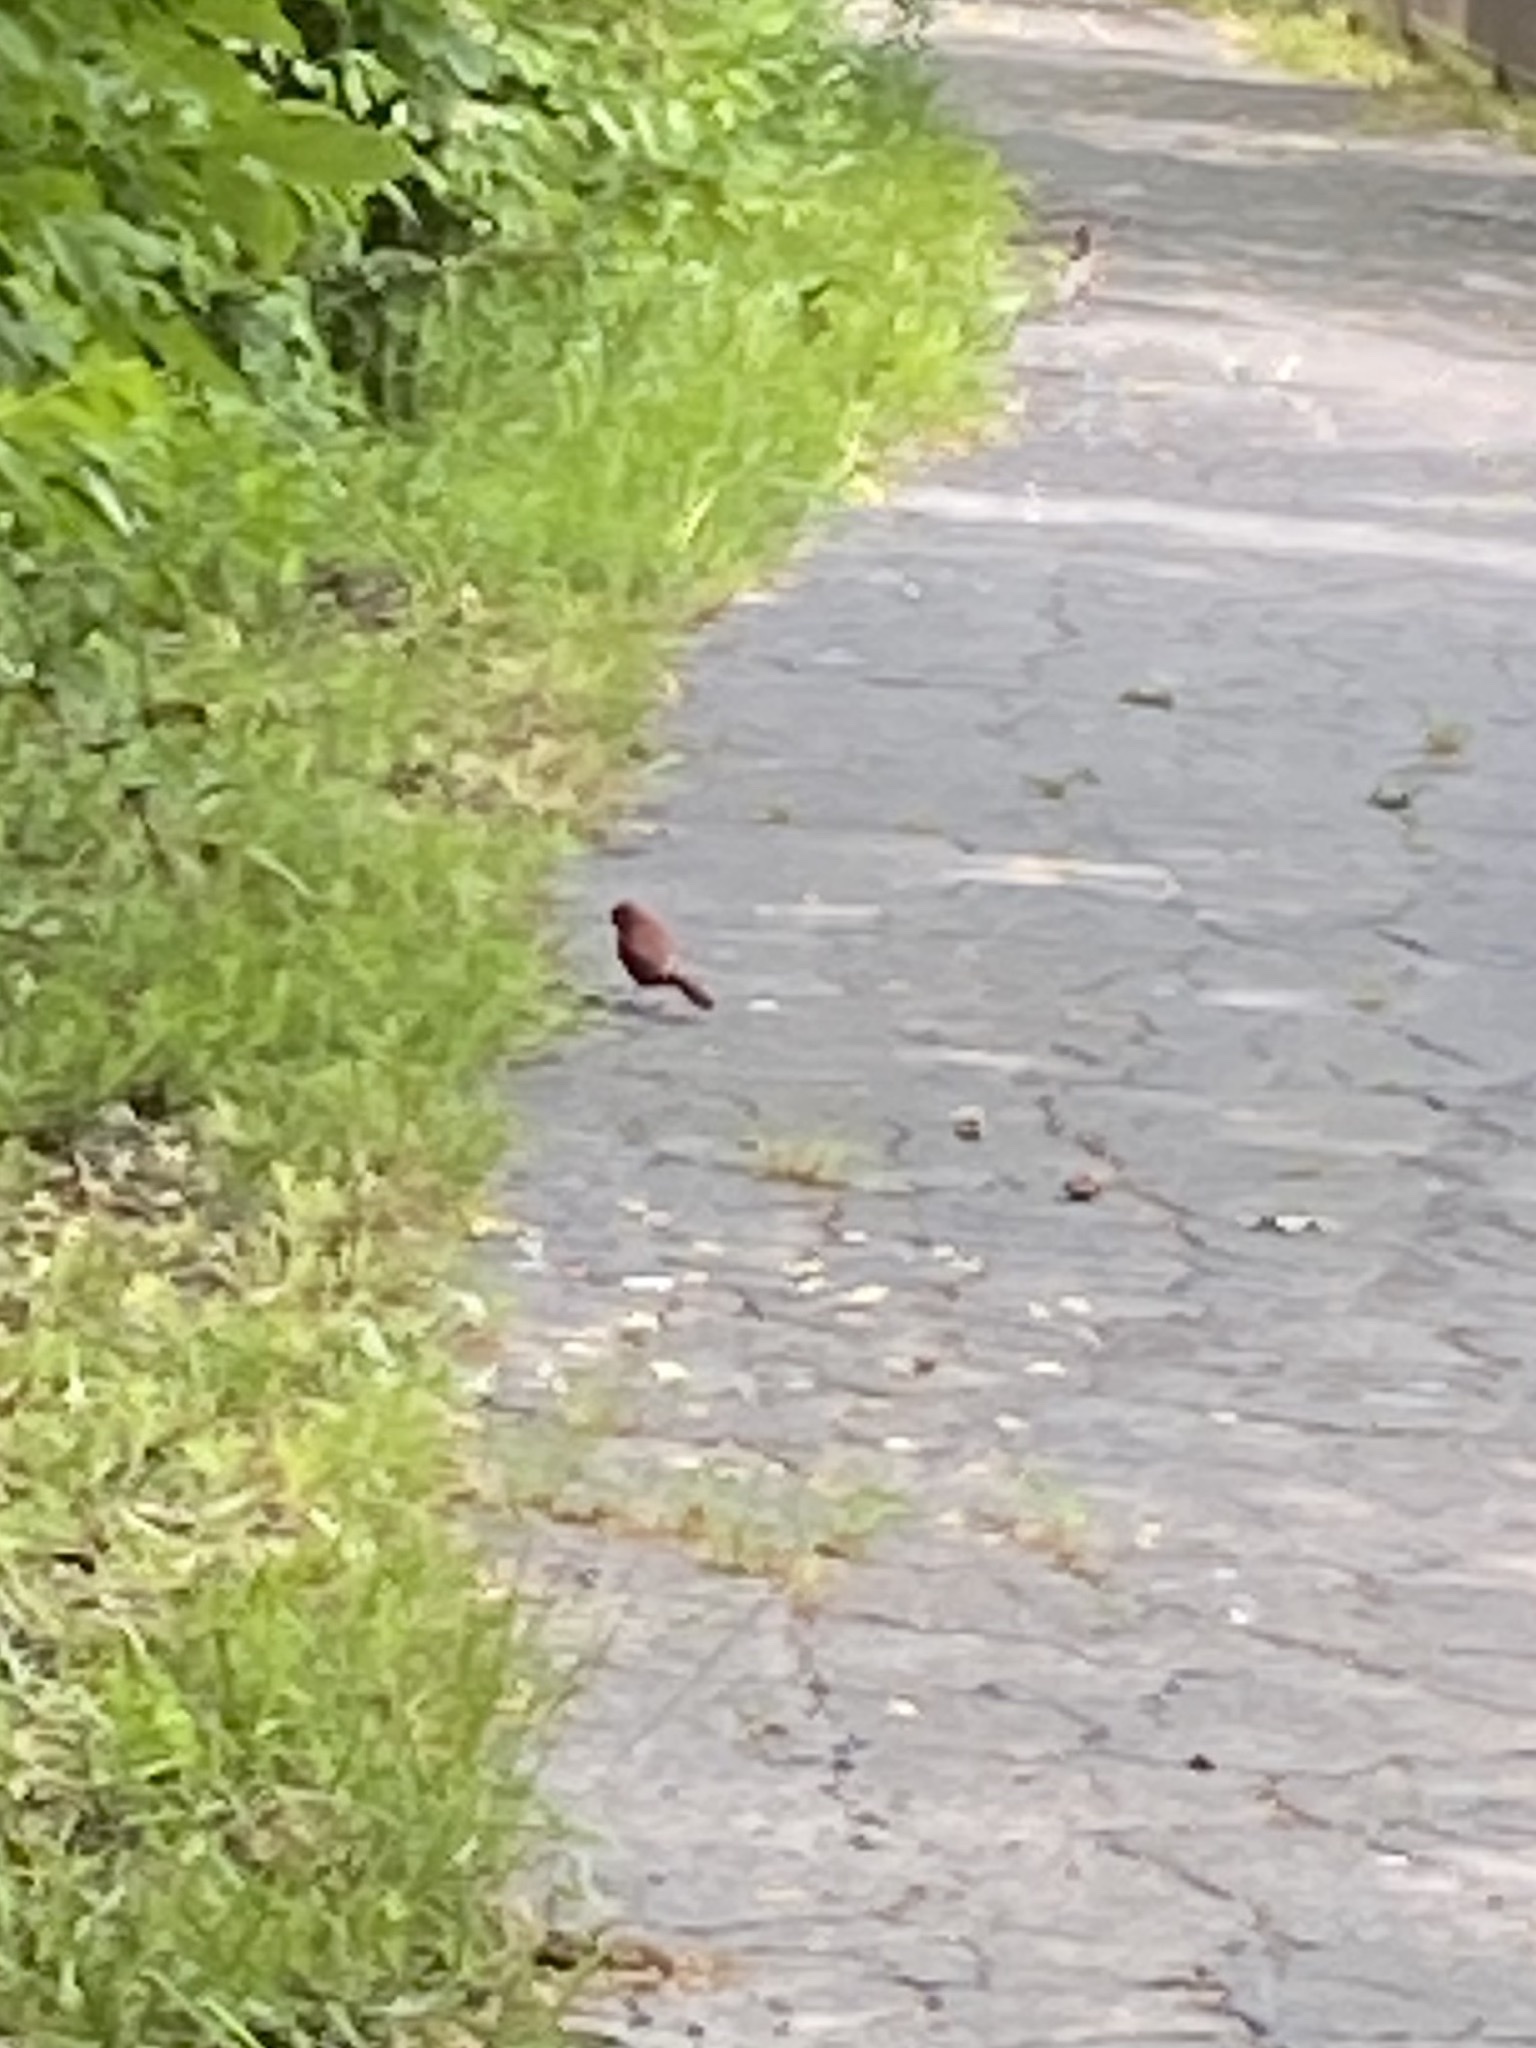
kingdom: Animalia
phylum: Chordata
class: Aves
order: Passeriformes
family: Cardinalidae
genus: Cardinalis
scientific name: Cardinalis cardinalis
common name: Northern cardinal
